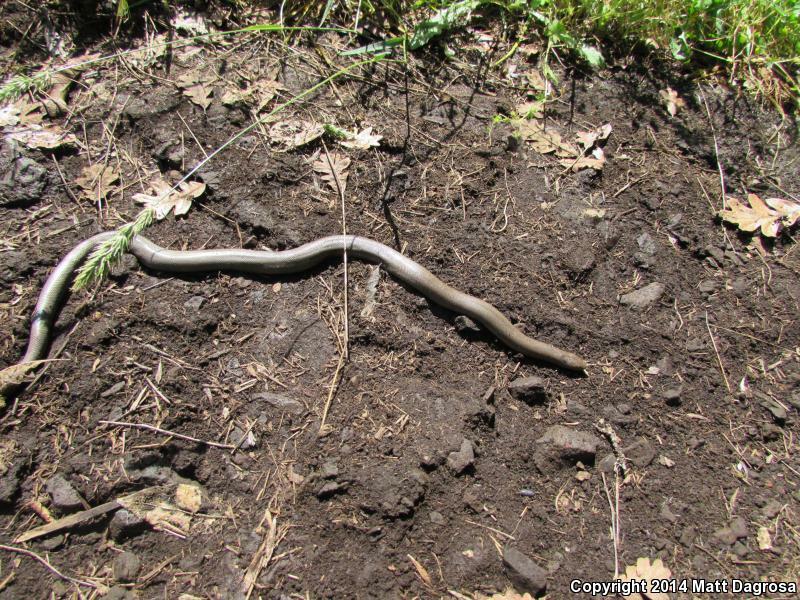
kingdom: Animalia
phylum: Chordata
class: Squamata
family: Boidae
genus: Charina
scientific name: Charina bottae
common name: Northern rubber boa
